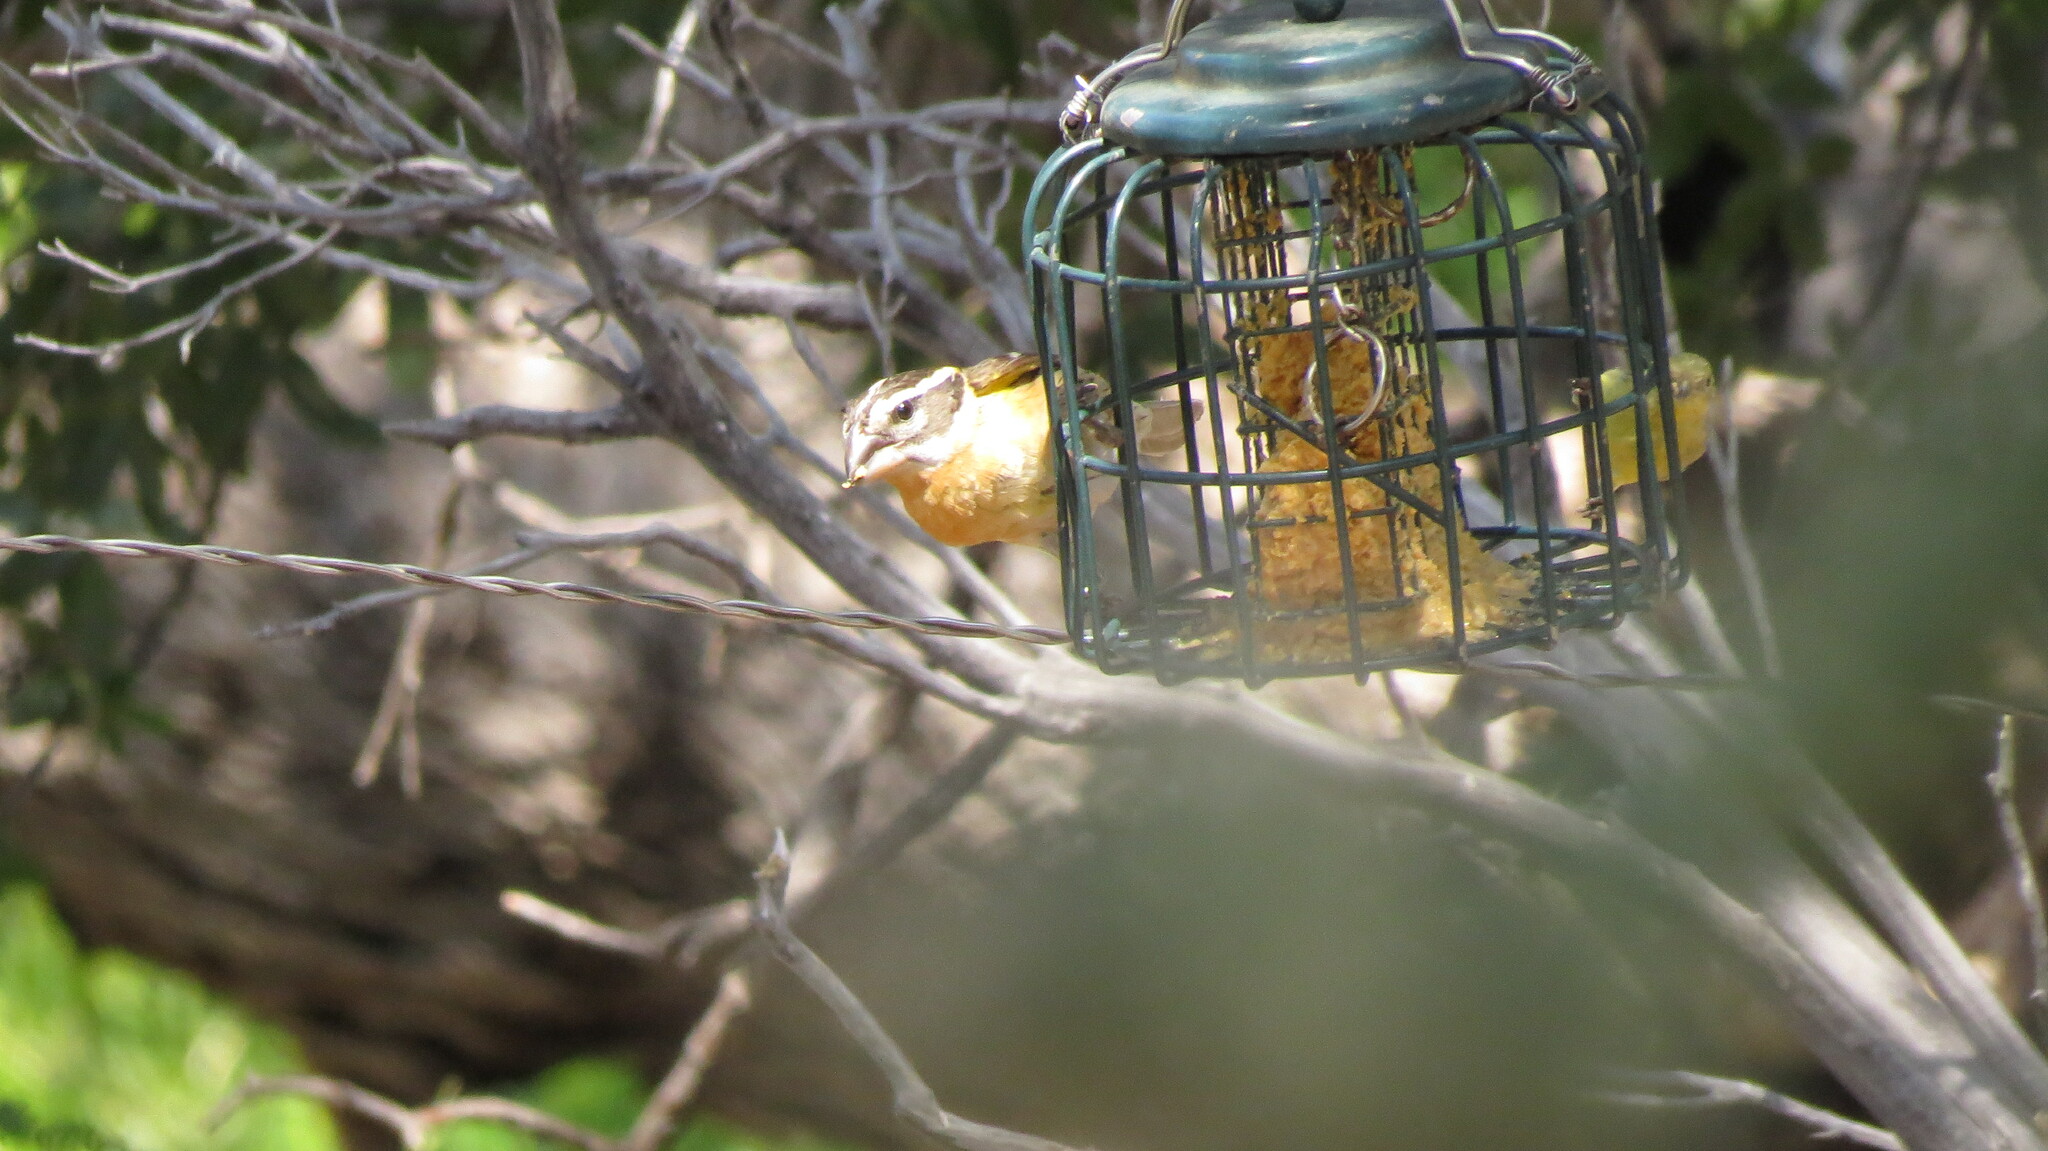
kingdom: Animalia
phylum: Chordata
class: Aves
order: Passeriformes
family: Cardinalidae
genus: Pheucticus
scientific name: Pheucticus melanocephalus
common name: Black-headed grosbeak
